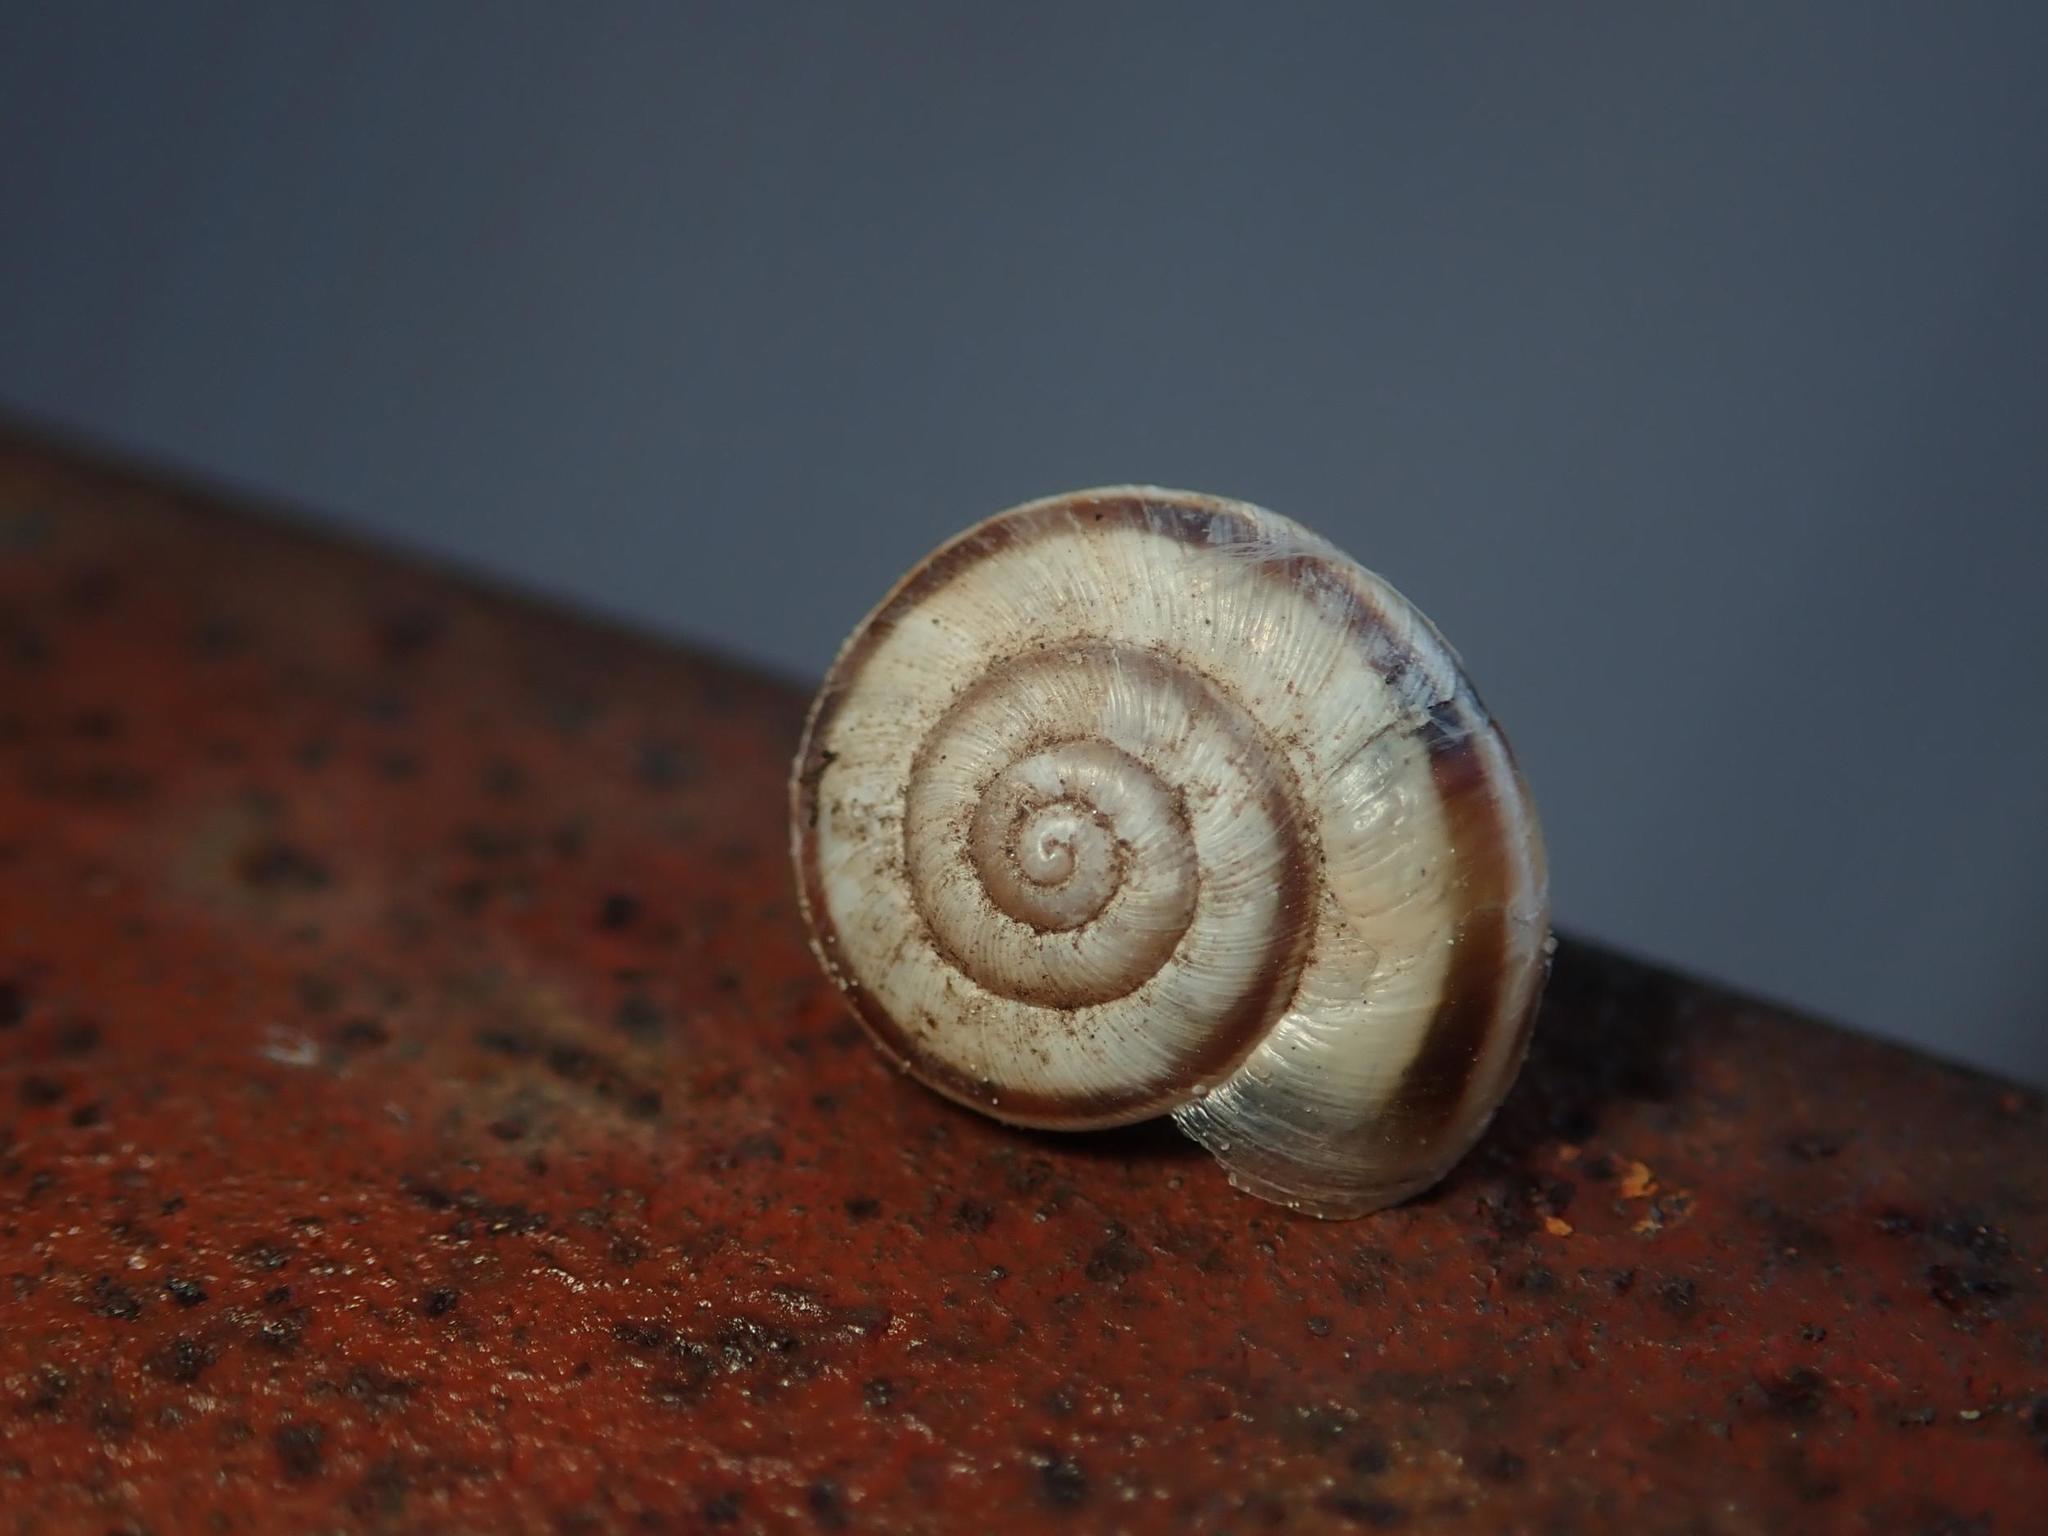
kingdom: Animalia
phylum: Mollusca
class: Gastropoda
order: Stylommatophora
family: Geomitridae
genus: Helicella
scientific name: Helicella itala
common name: Heath snail
